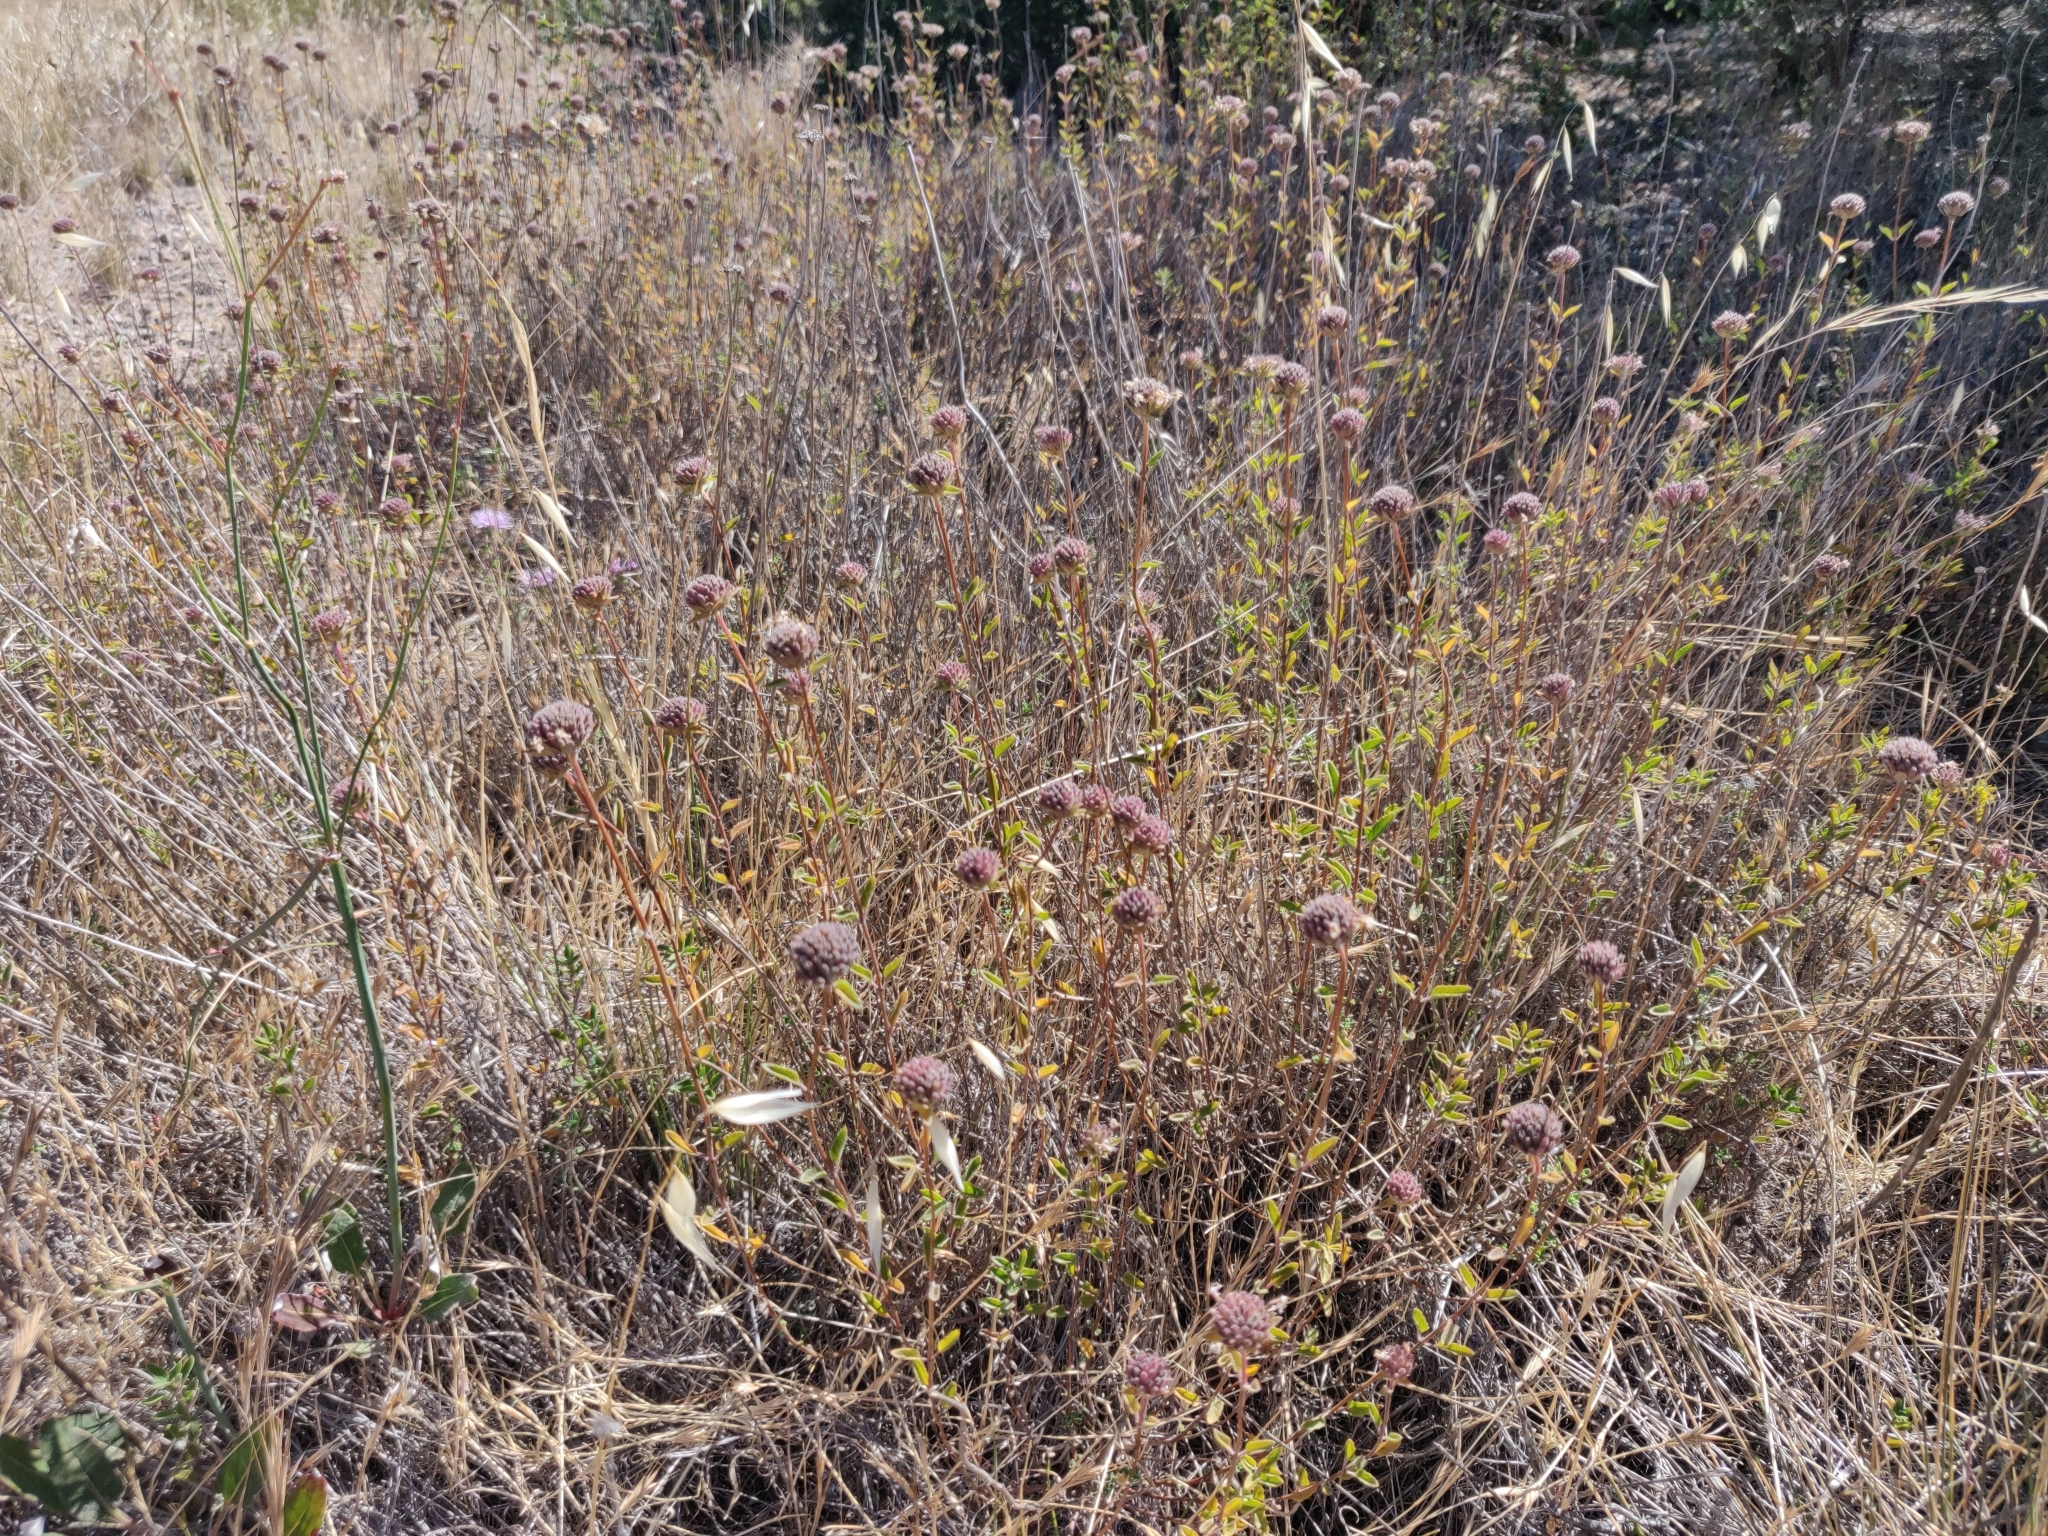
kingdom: Plantae
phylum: Tracheophyta
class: Magnoliopsida
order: Lamiales
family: Lamiaceae
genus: Monardella
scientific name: Monardella odoratissima
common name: Pacific monardella
